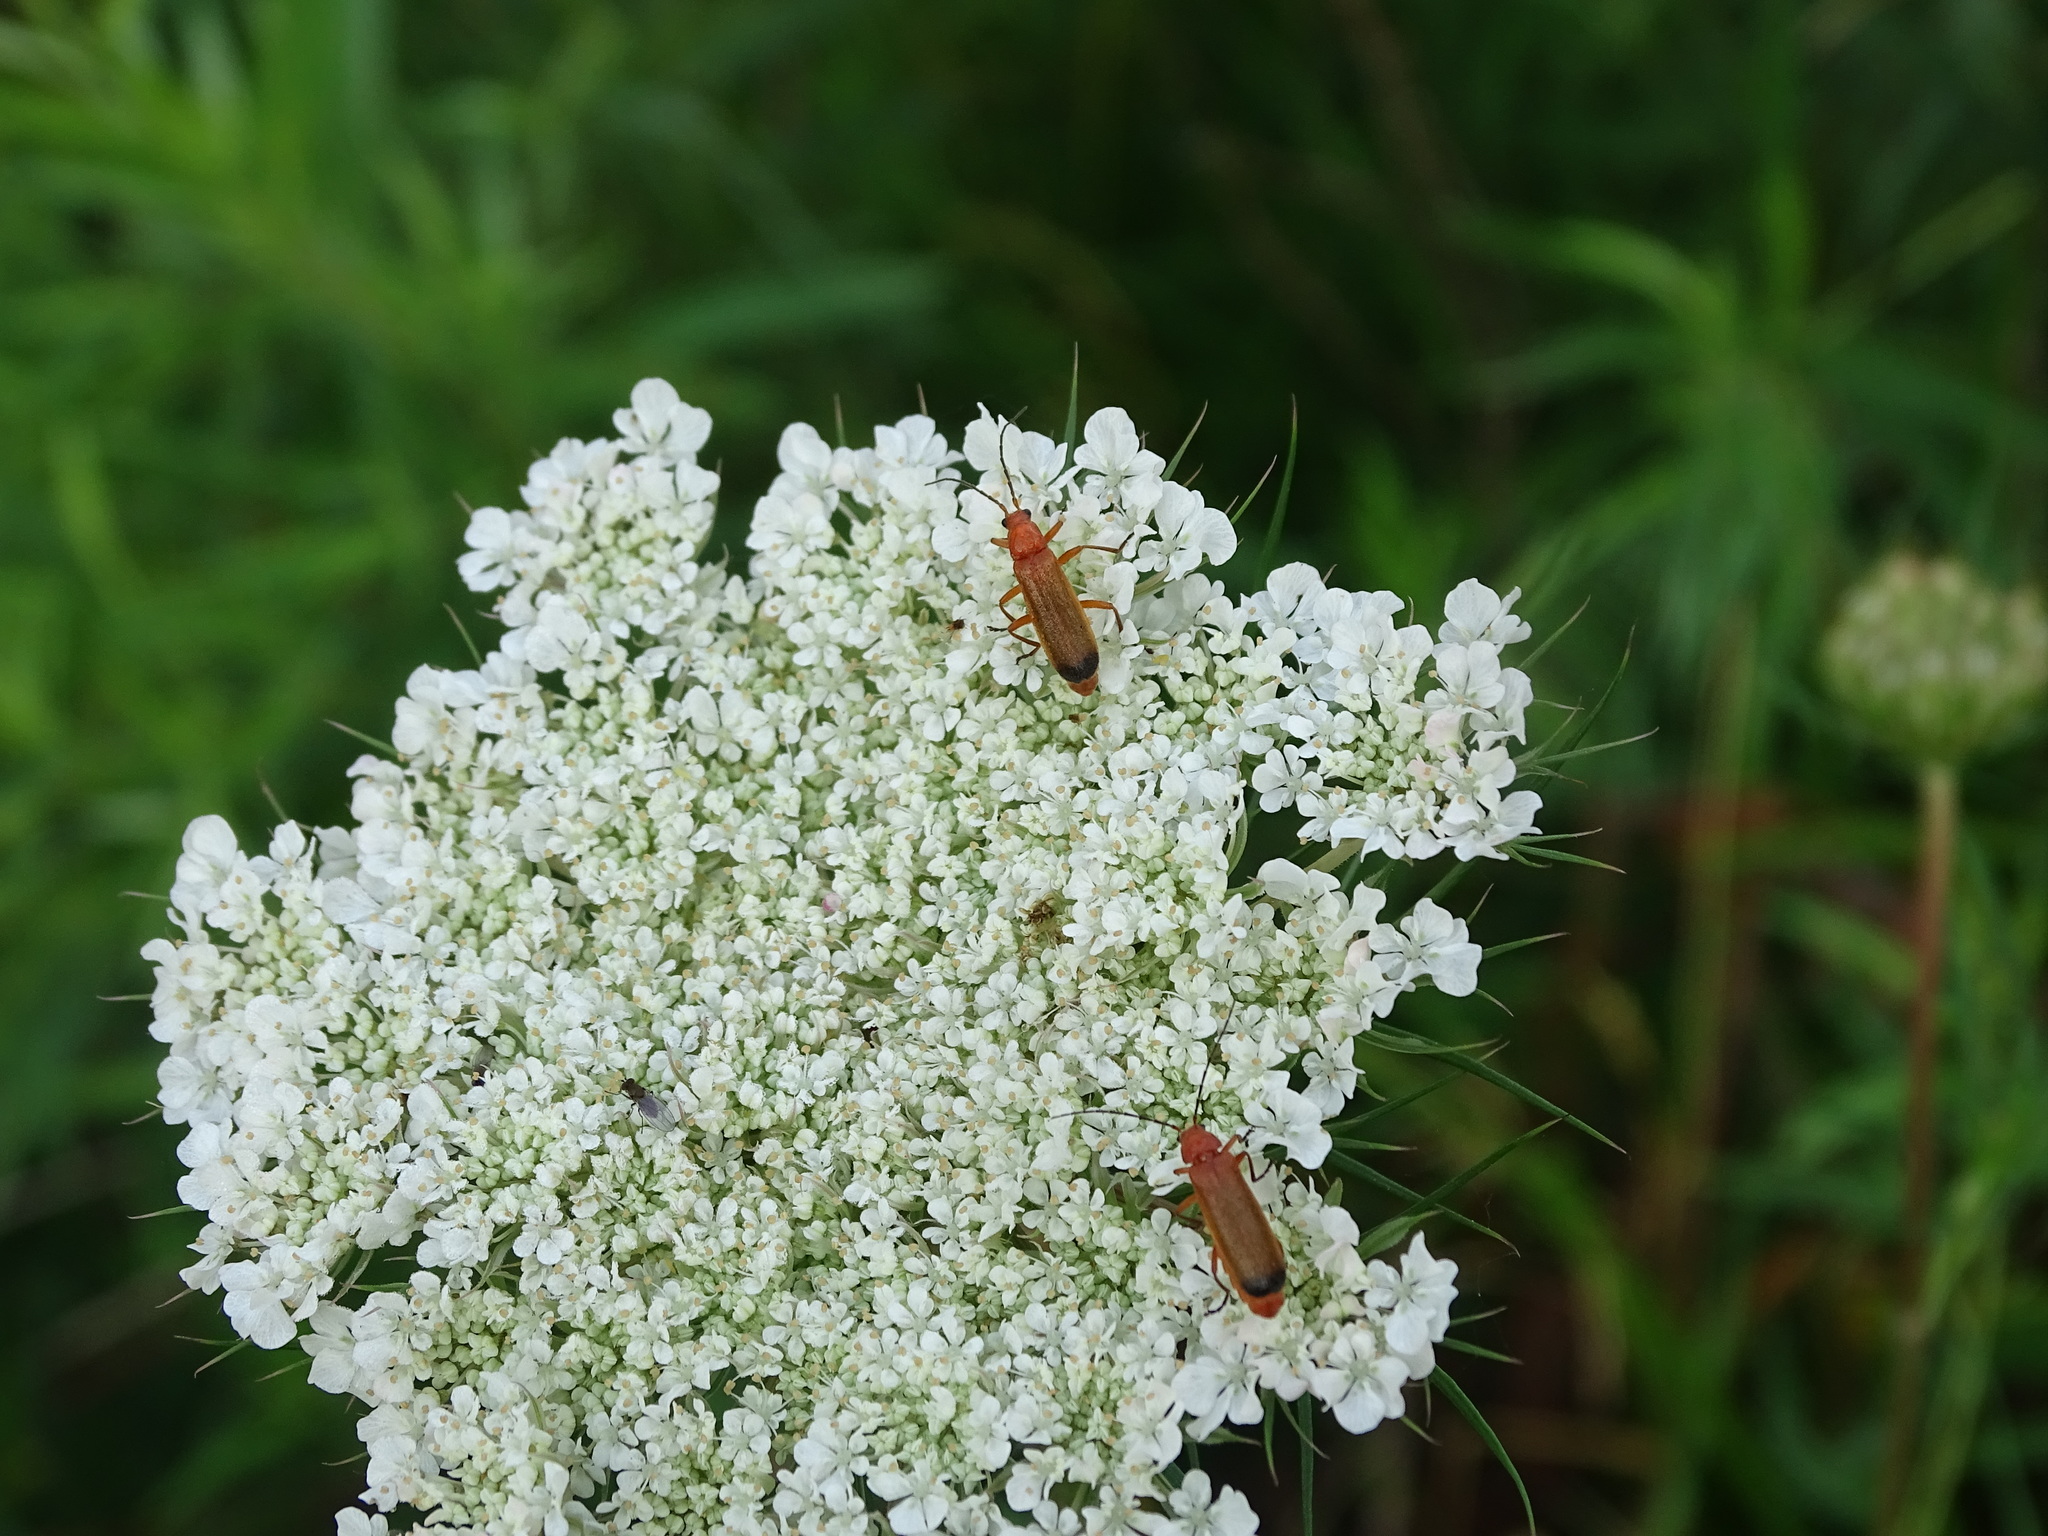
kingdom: Animalia
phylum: Arthropoda
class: Insecta
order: Coleoptera
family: Cantharidae
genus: Rhagonycha
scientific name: Rhagonycha fulva
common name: Common red soldier beetle
